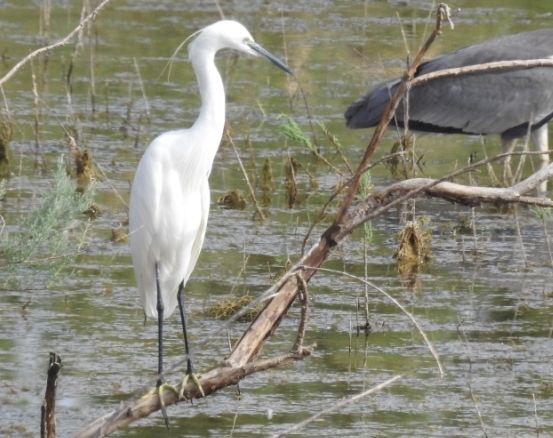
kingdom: Animalia
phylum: Chordata
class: Aves
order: Pelecaniformes
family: Ardeidae
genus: Egretta
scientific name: Egretta garzetta
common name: Little egret
